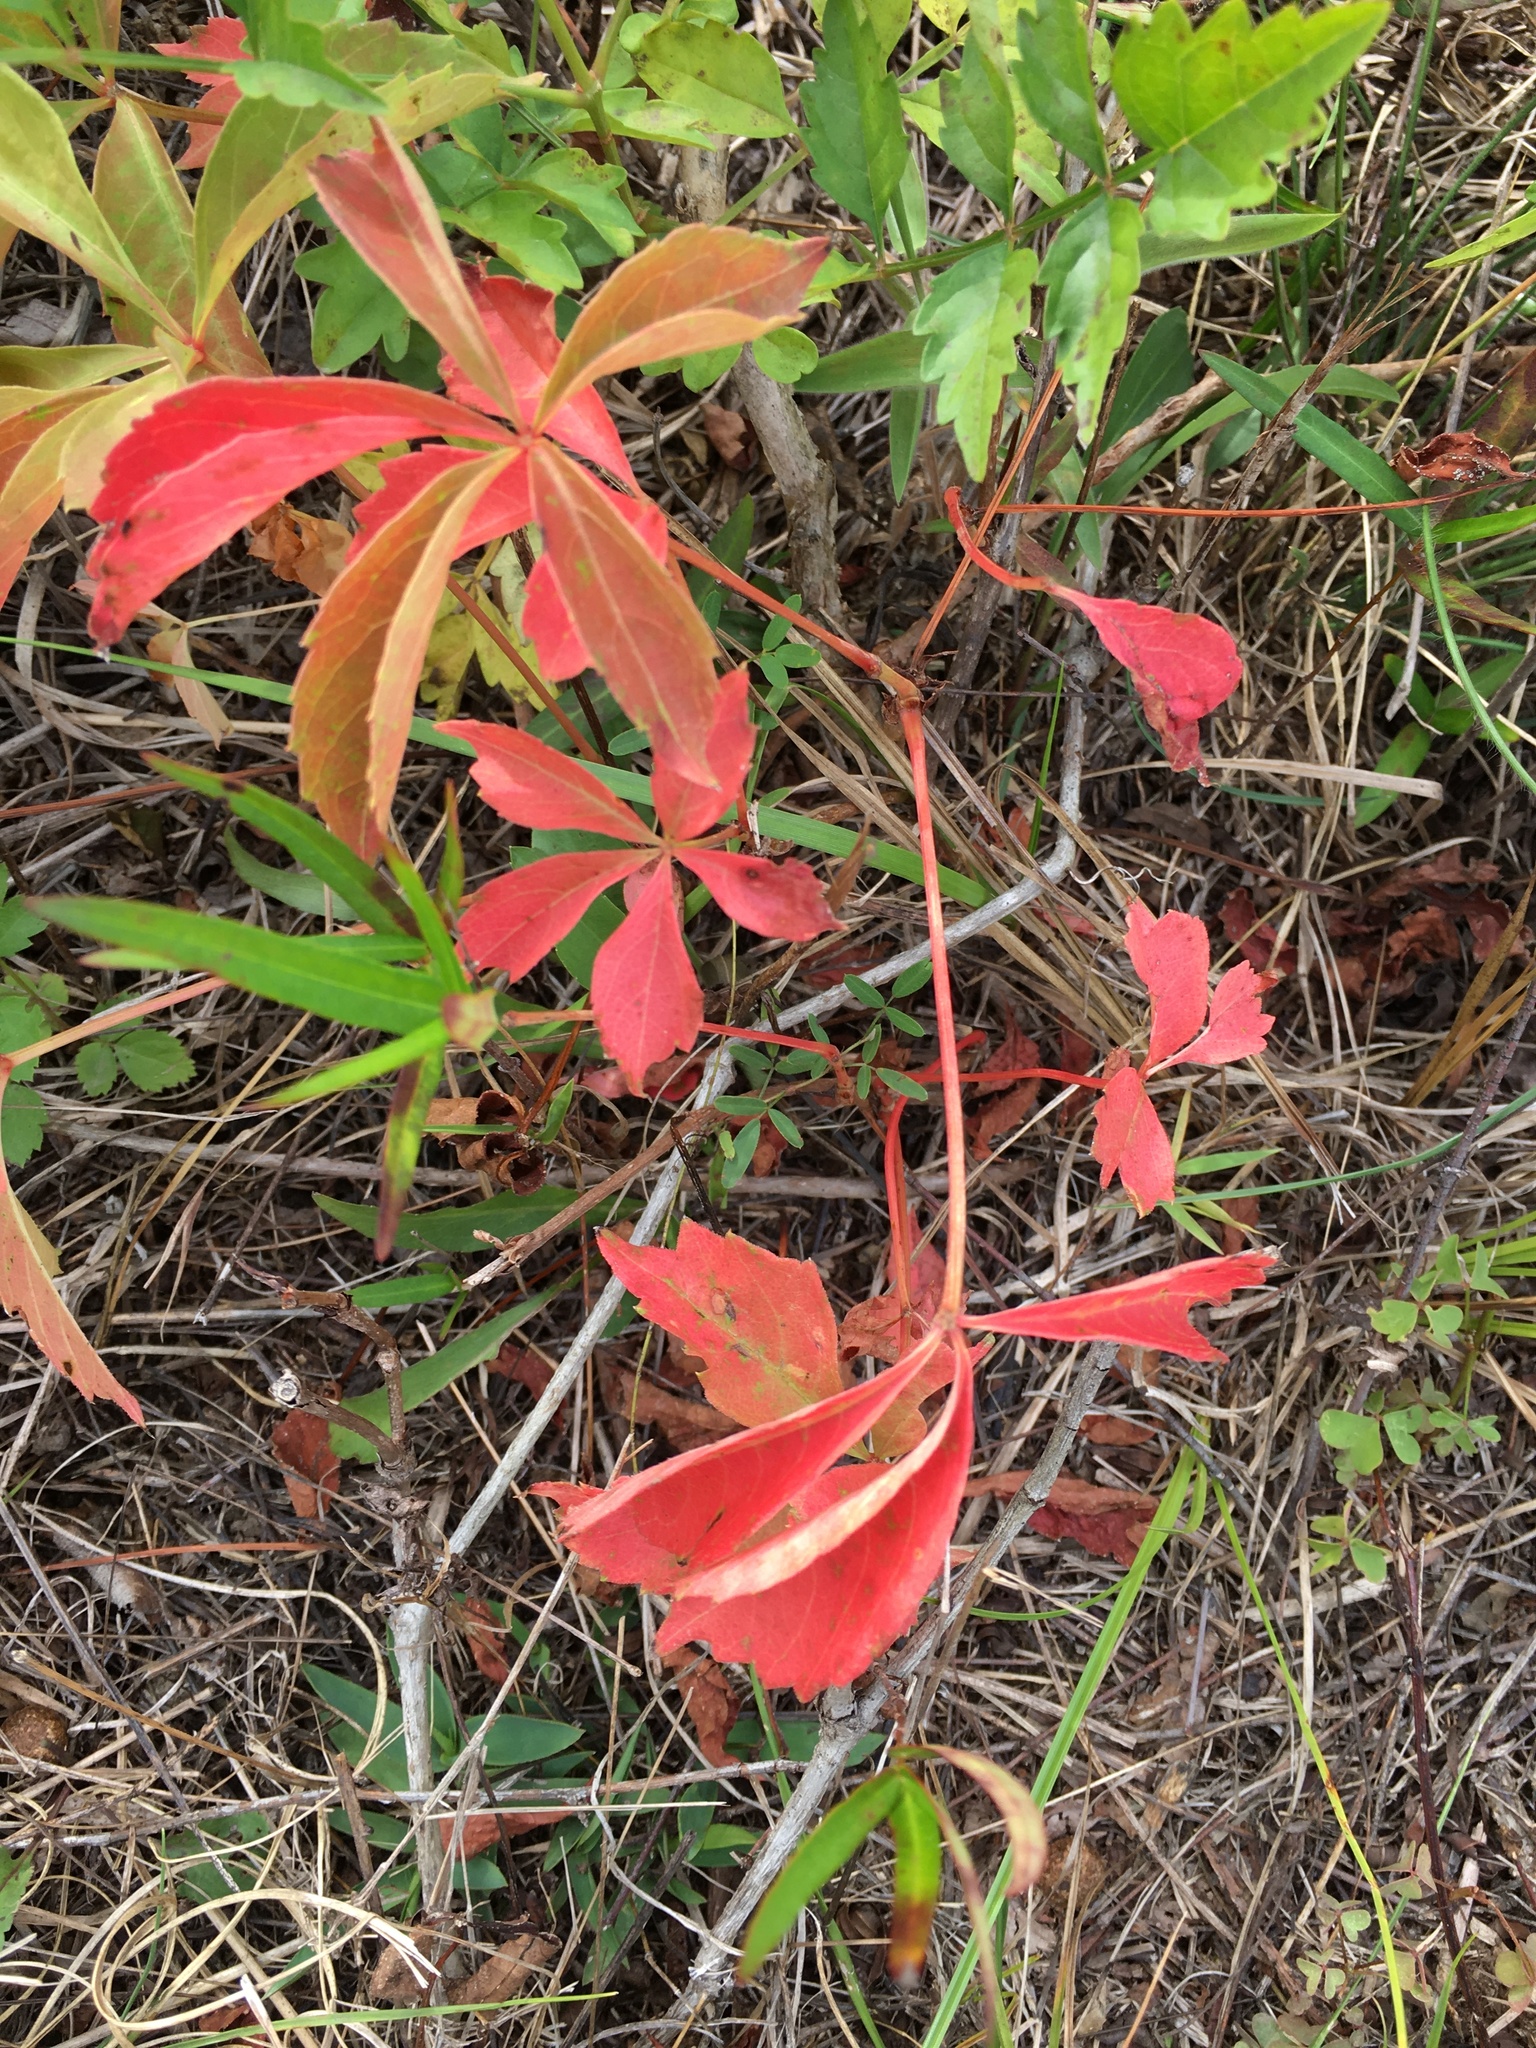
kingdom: Plantae
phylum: Tracheophyta
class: Magnoliopsida
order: Vitales
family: Vitaceae
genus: Parthenocissus
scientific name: Parthenocissus quinquefolia
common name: Virginia-creeper
